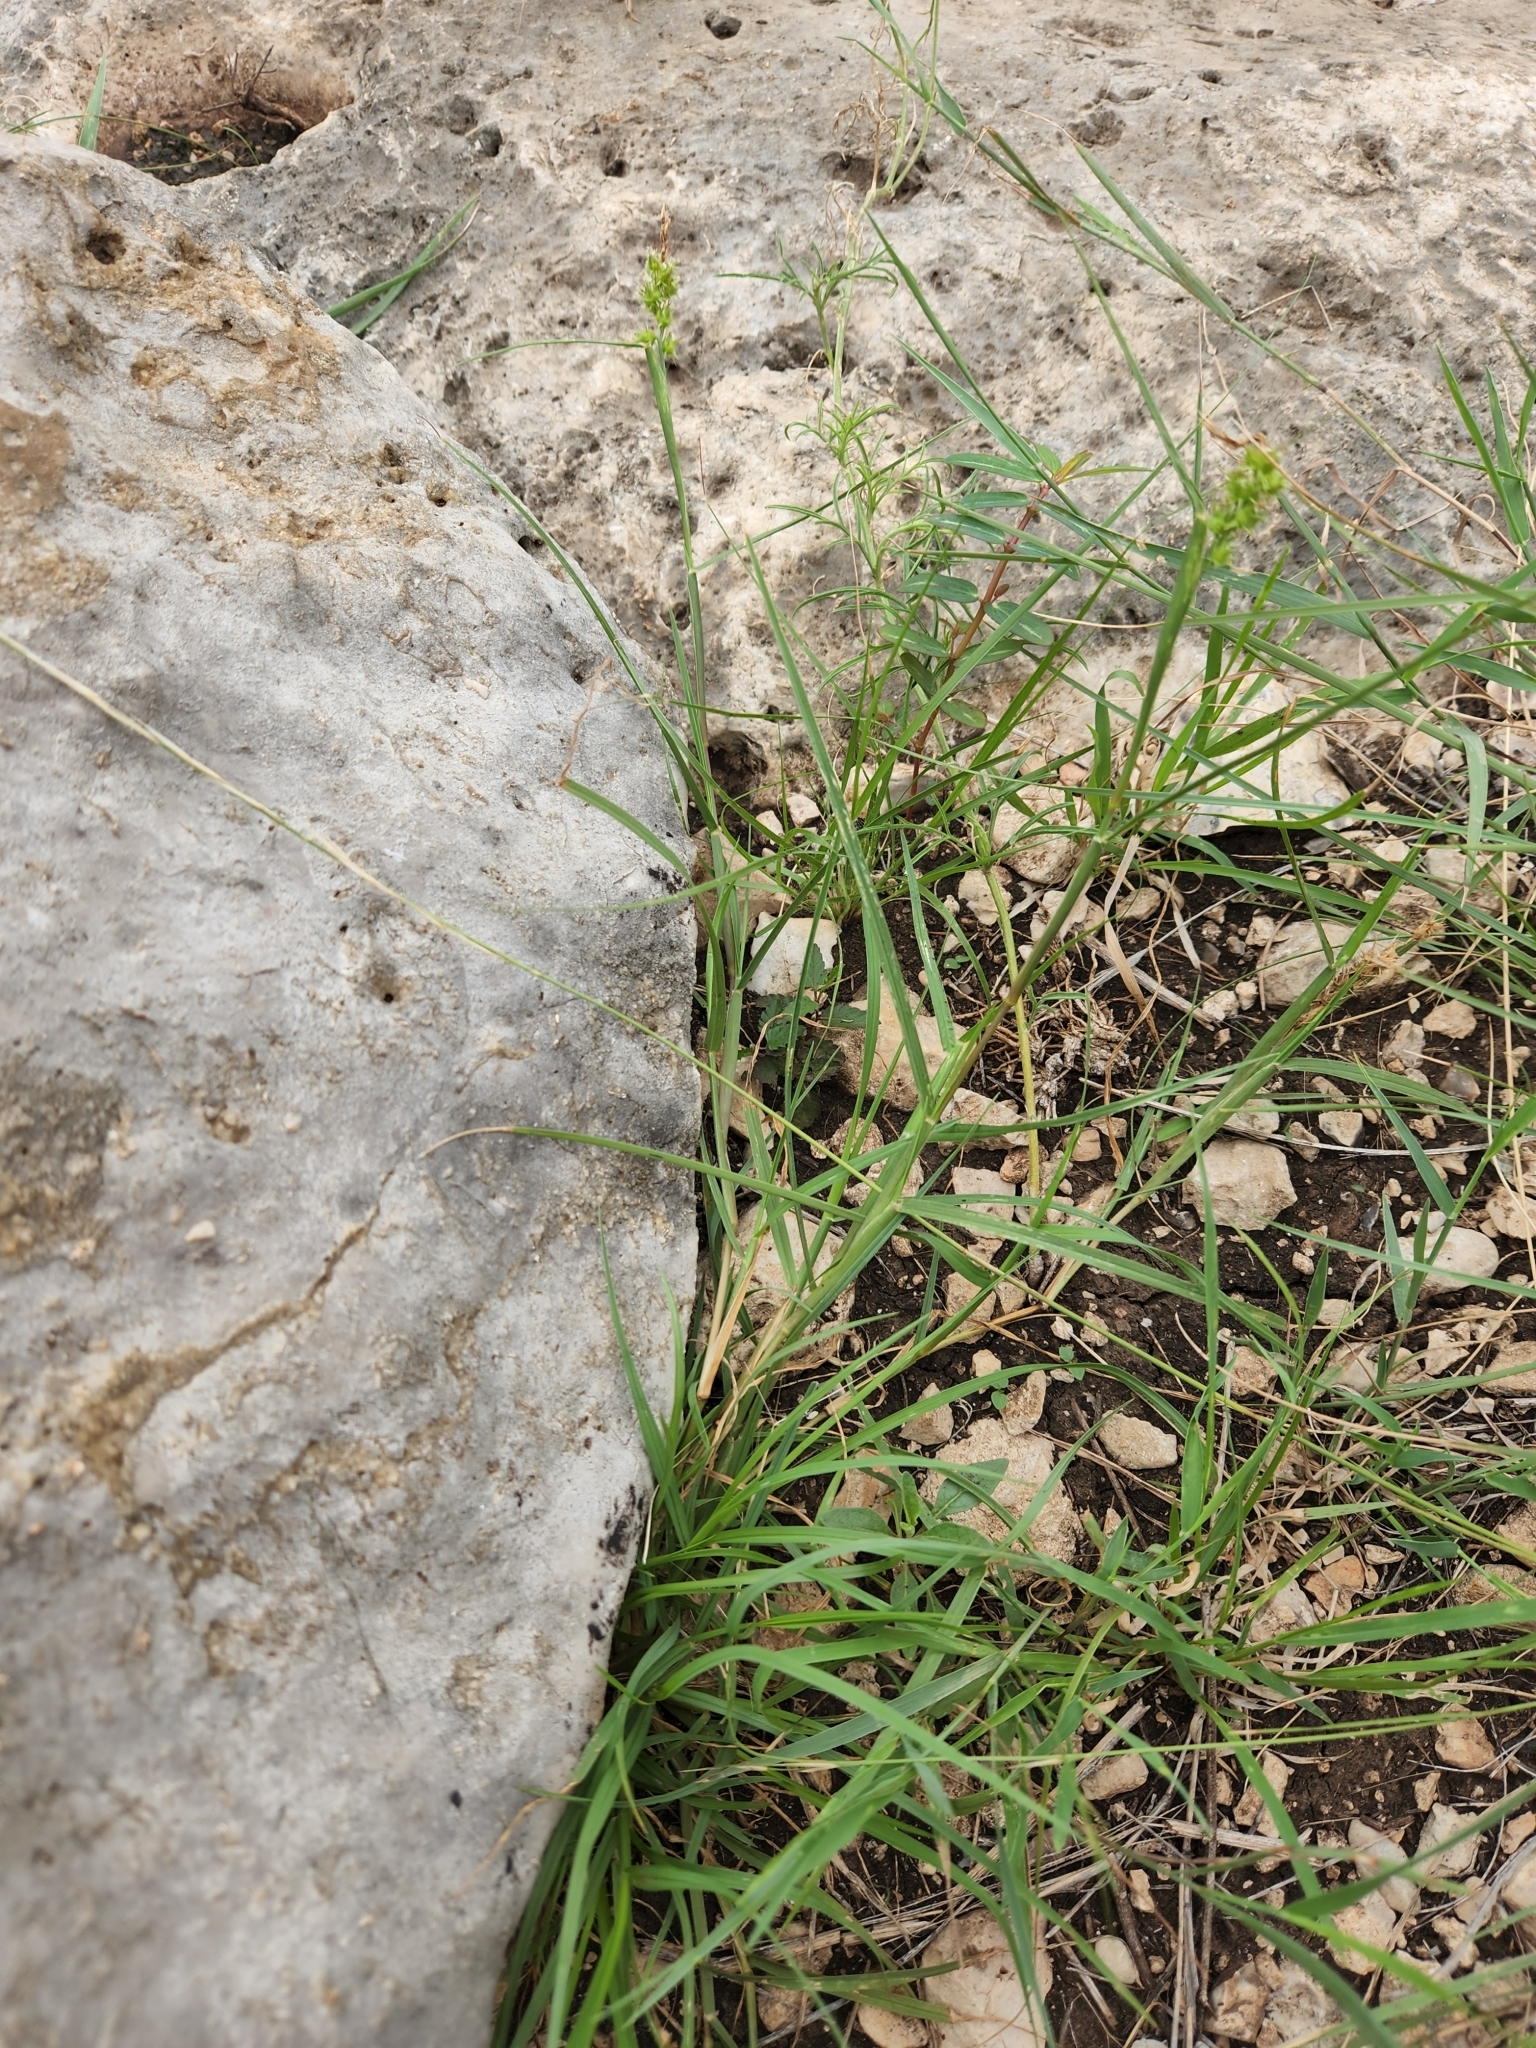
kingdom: Plantae
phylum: Tracheophyta
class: Liliopsida
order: Poales
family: Poaceae
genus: Cenchrus
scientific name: Cenchrus spinifex
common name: Coast sandbur
